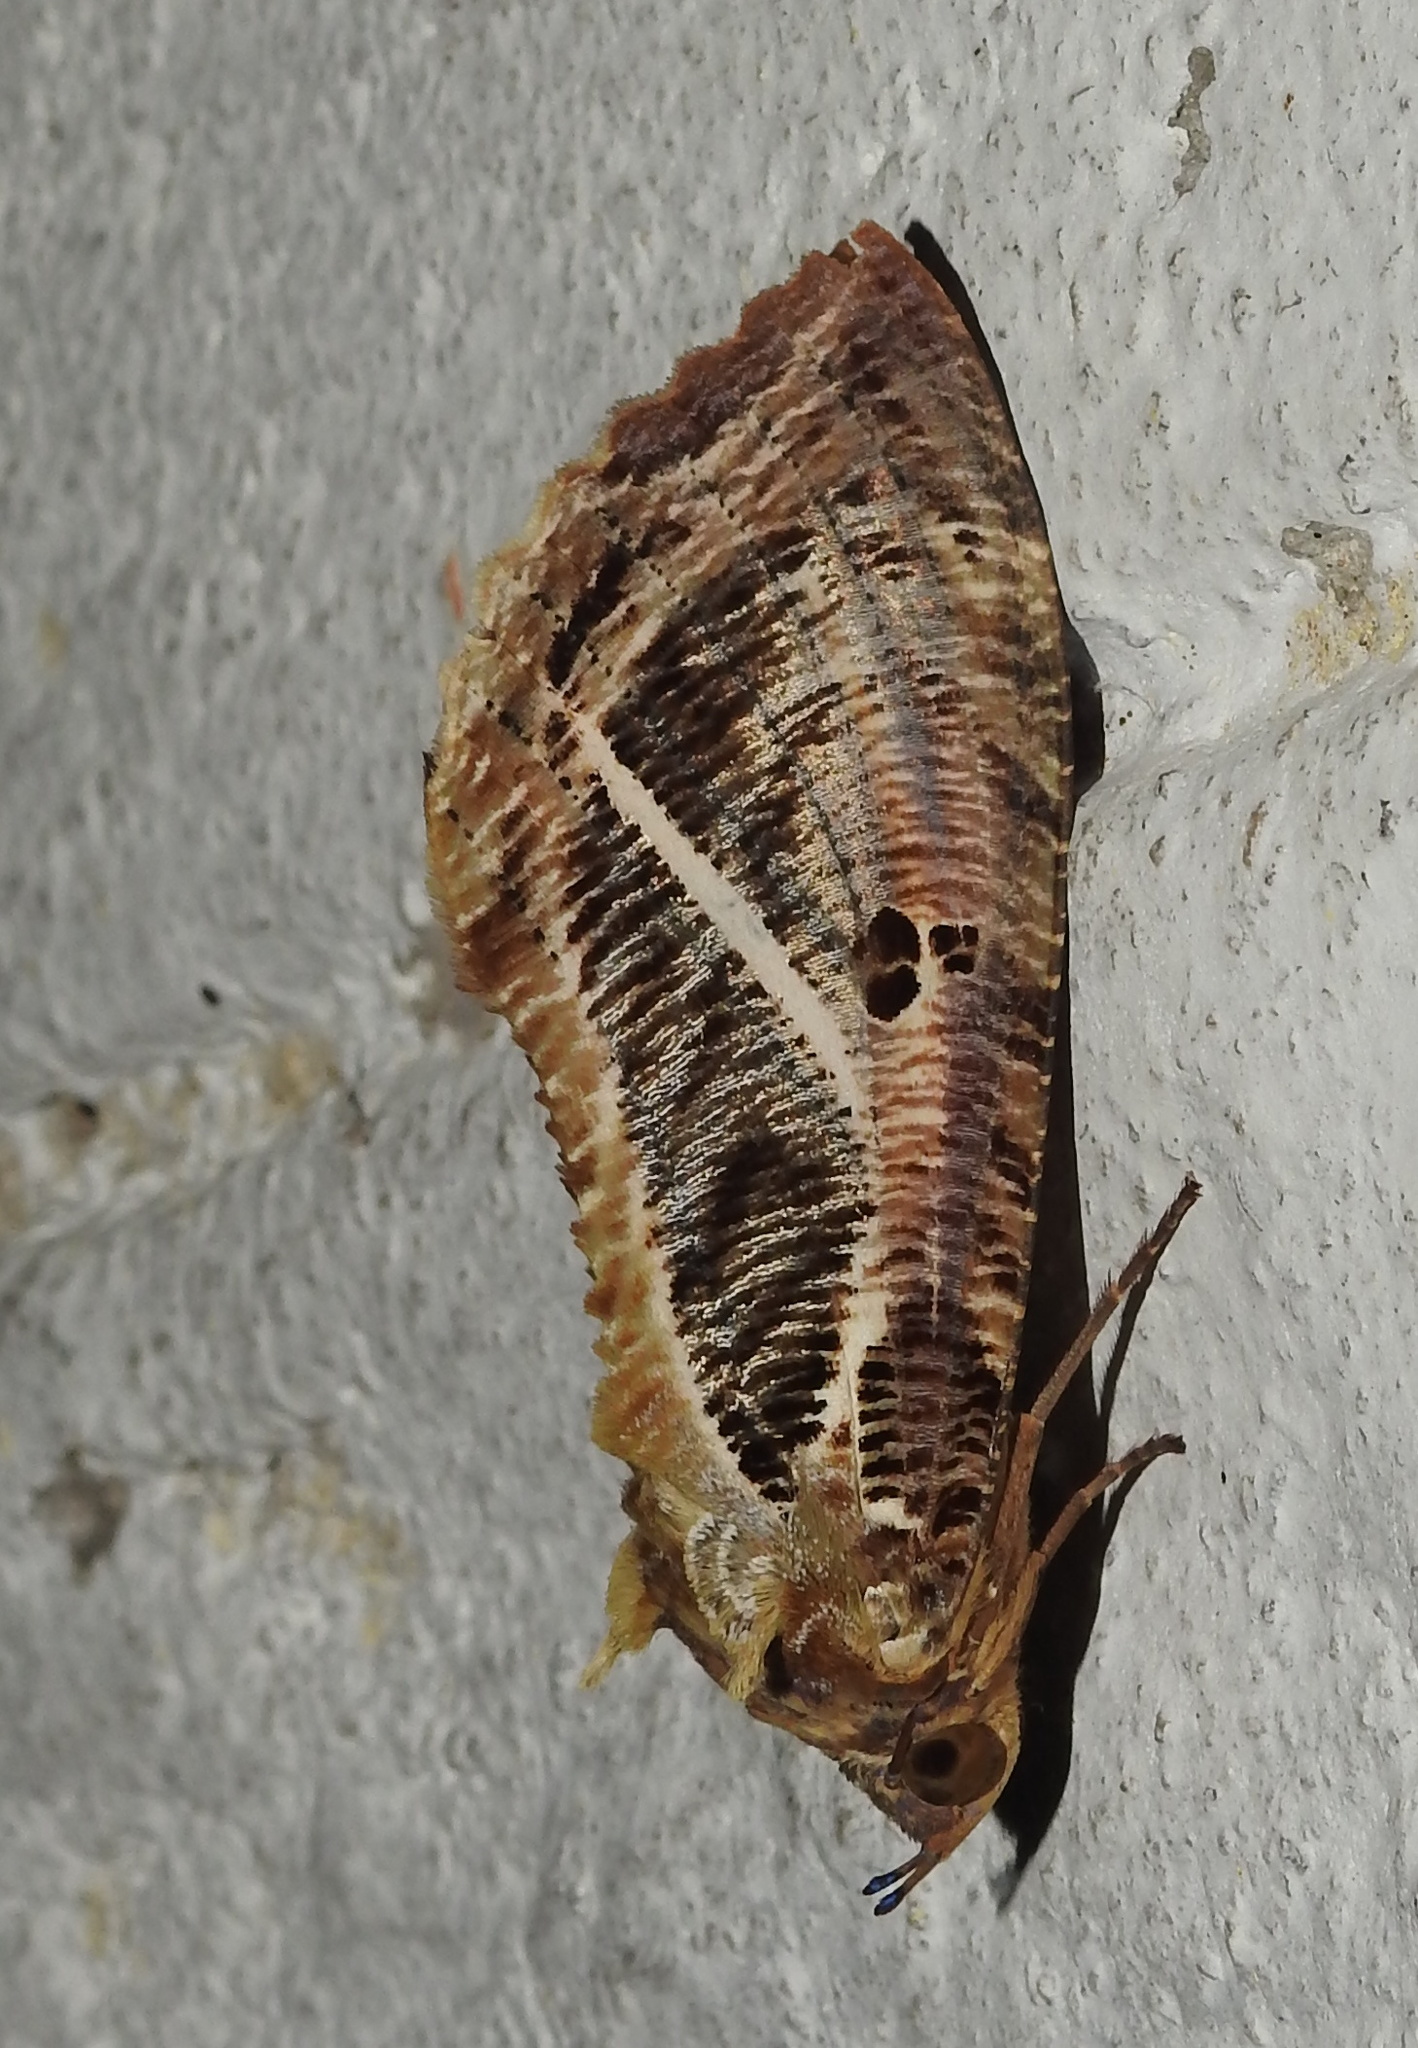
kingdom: Animalia
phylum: Arthropoda
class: Insecta
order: Lepidoptera
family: Erebidae
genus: Eudocima
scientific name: Eudocima materna
